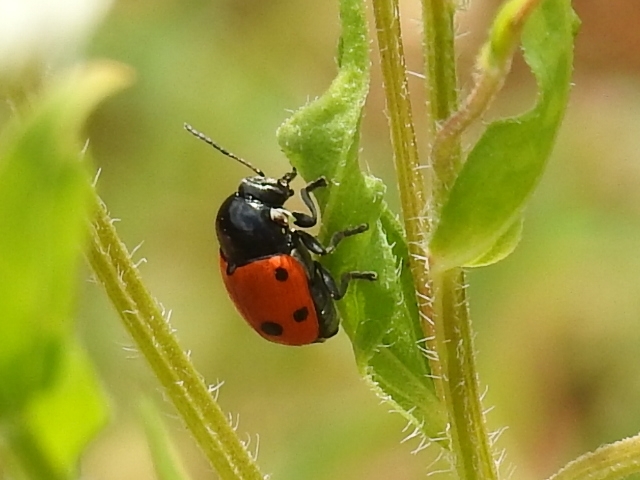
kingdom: Animalia
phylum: Arthropoda
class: Insecta
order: Coleoptera
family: Chrysomelidae
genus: Cryptocephalus
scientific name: Cryptocephalus trimaculatus
